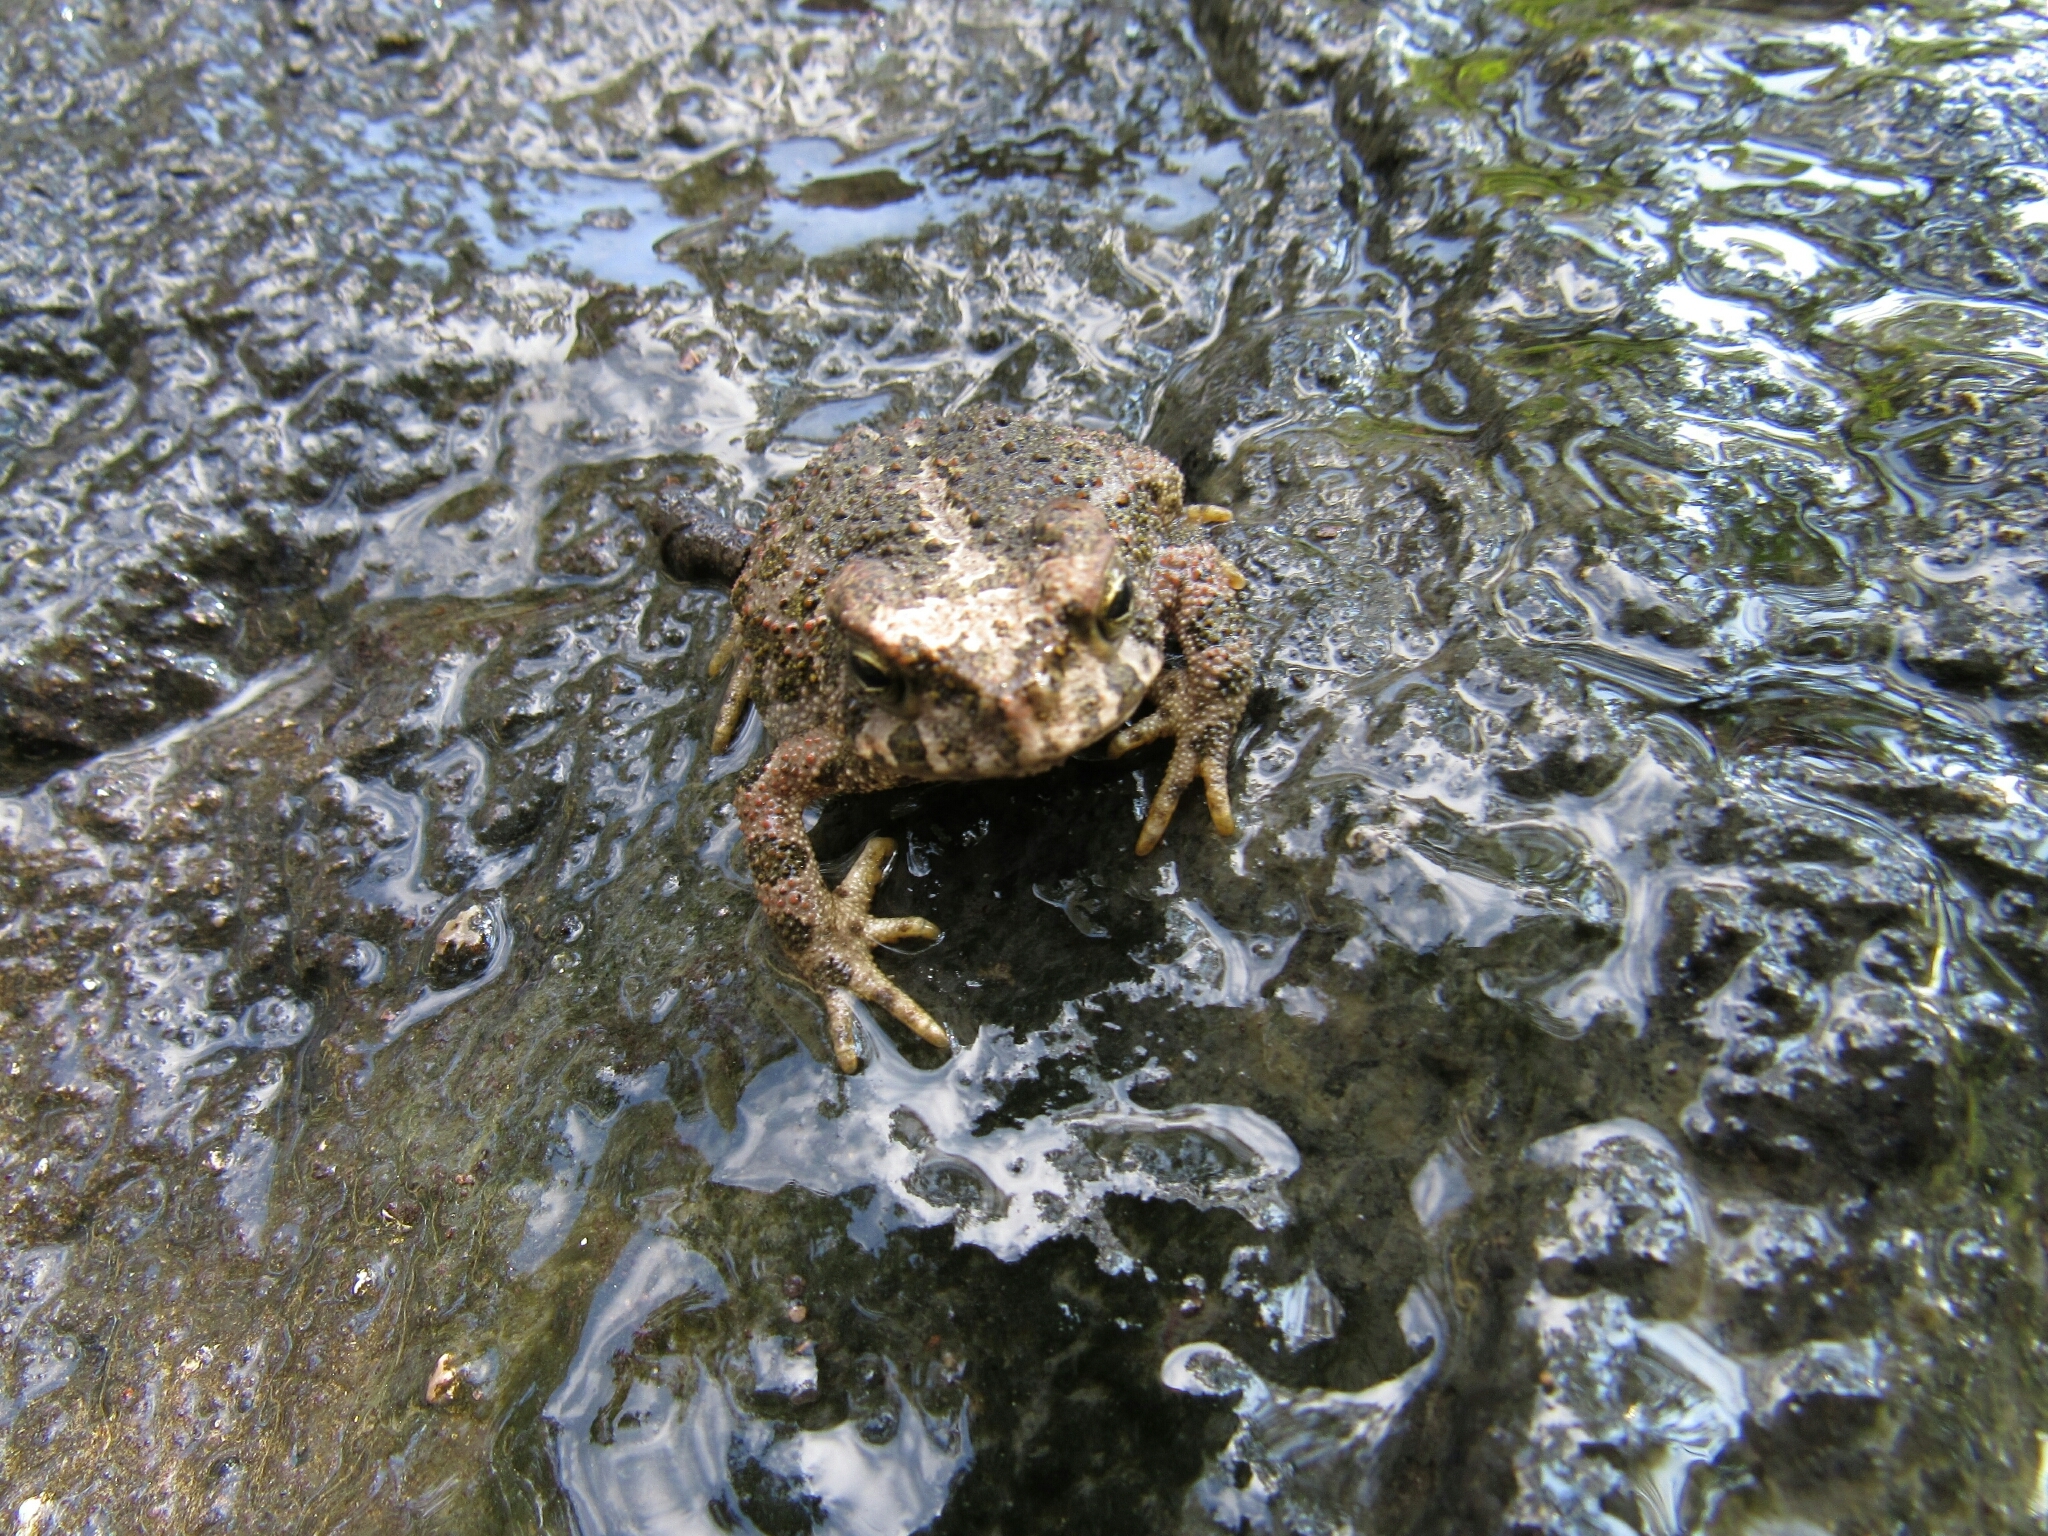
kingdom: Animalia
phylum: Chordata
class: Amphibia
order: Anura
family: Bufonidae
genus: Incilius
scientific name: Incilius occidentalis
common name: Pine toad
